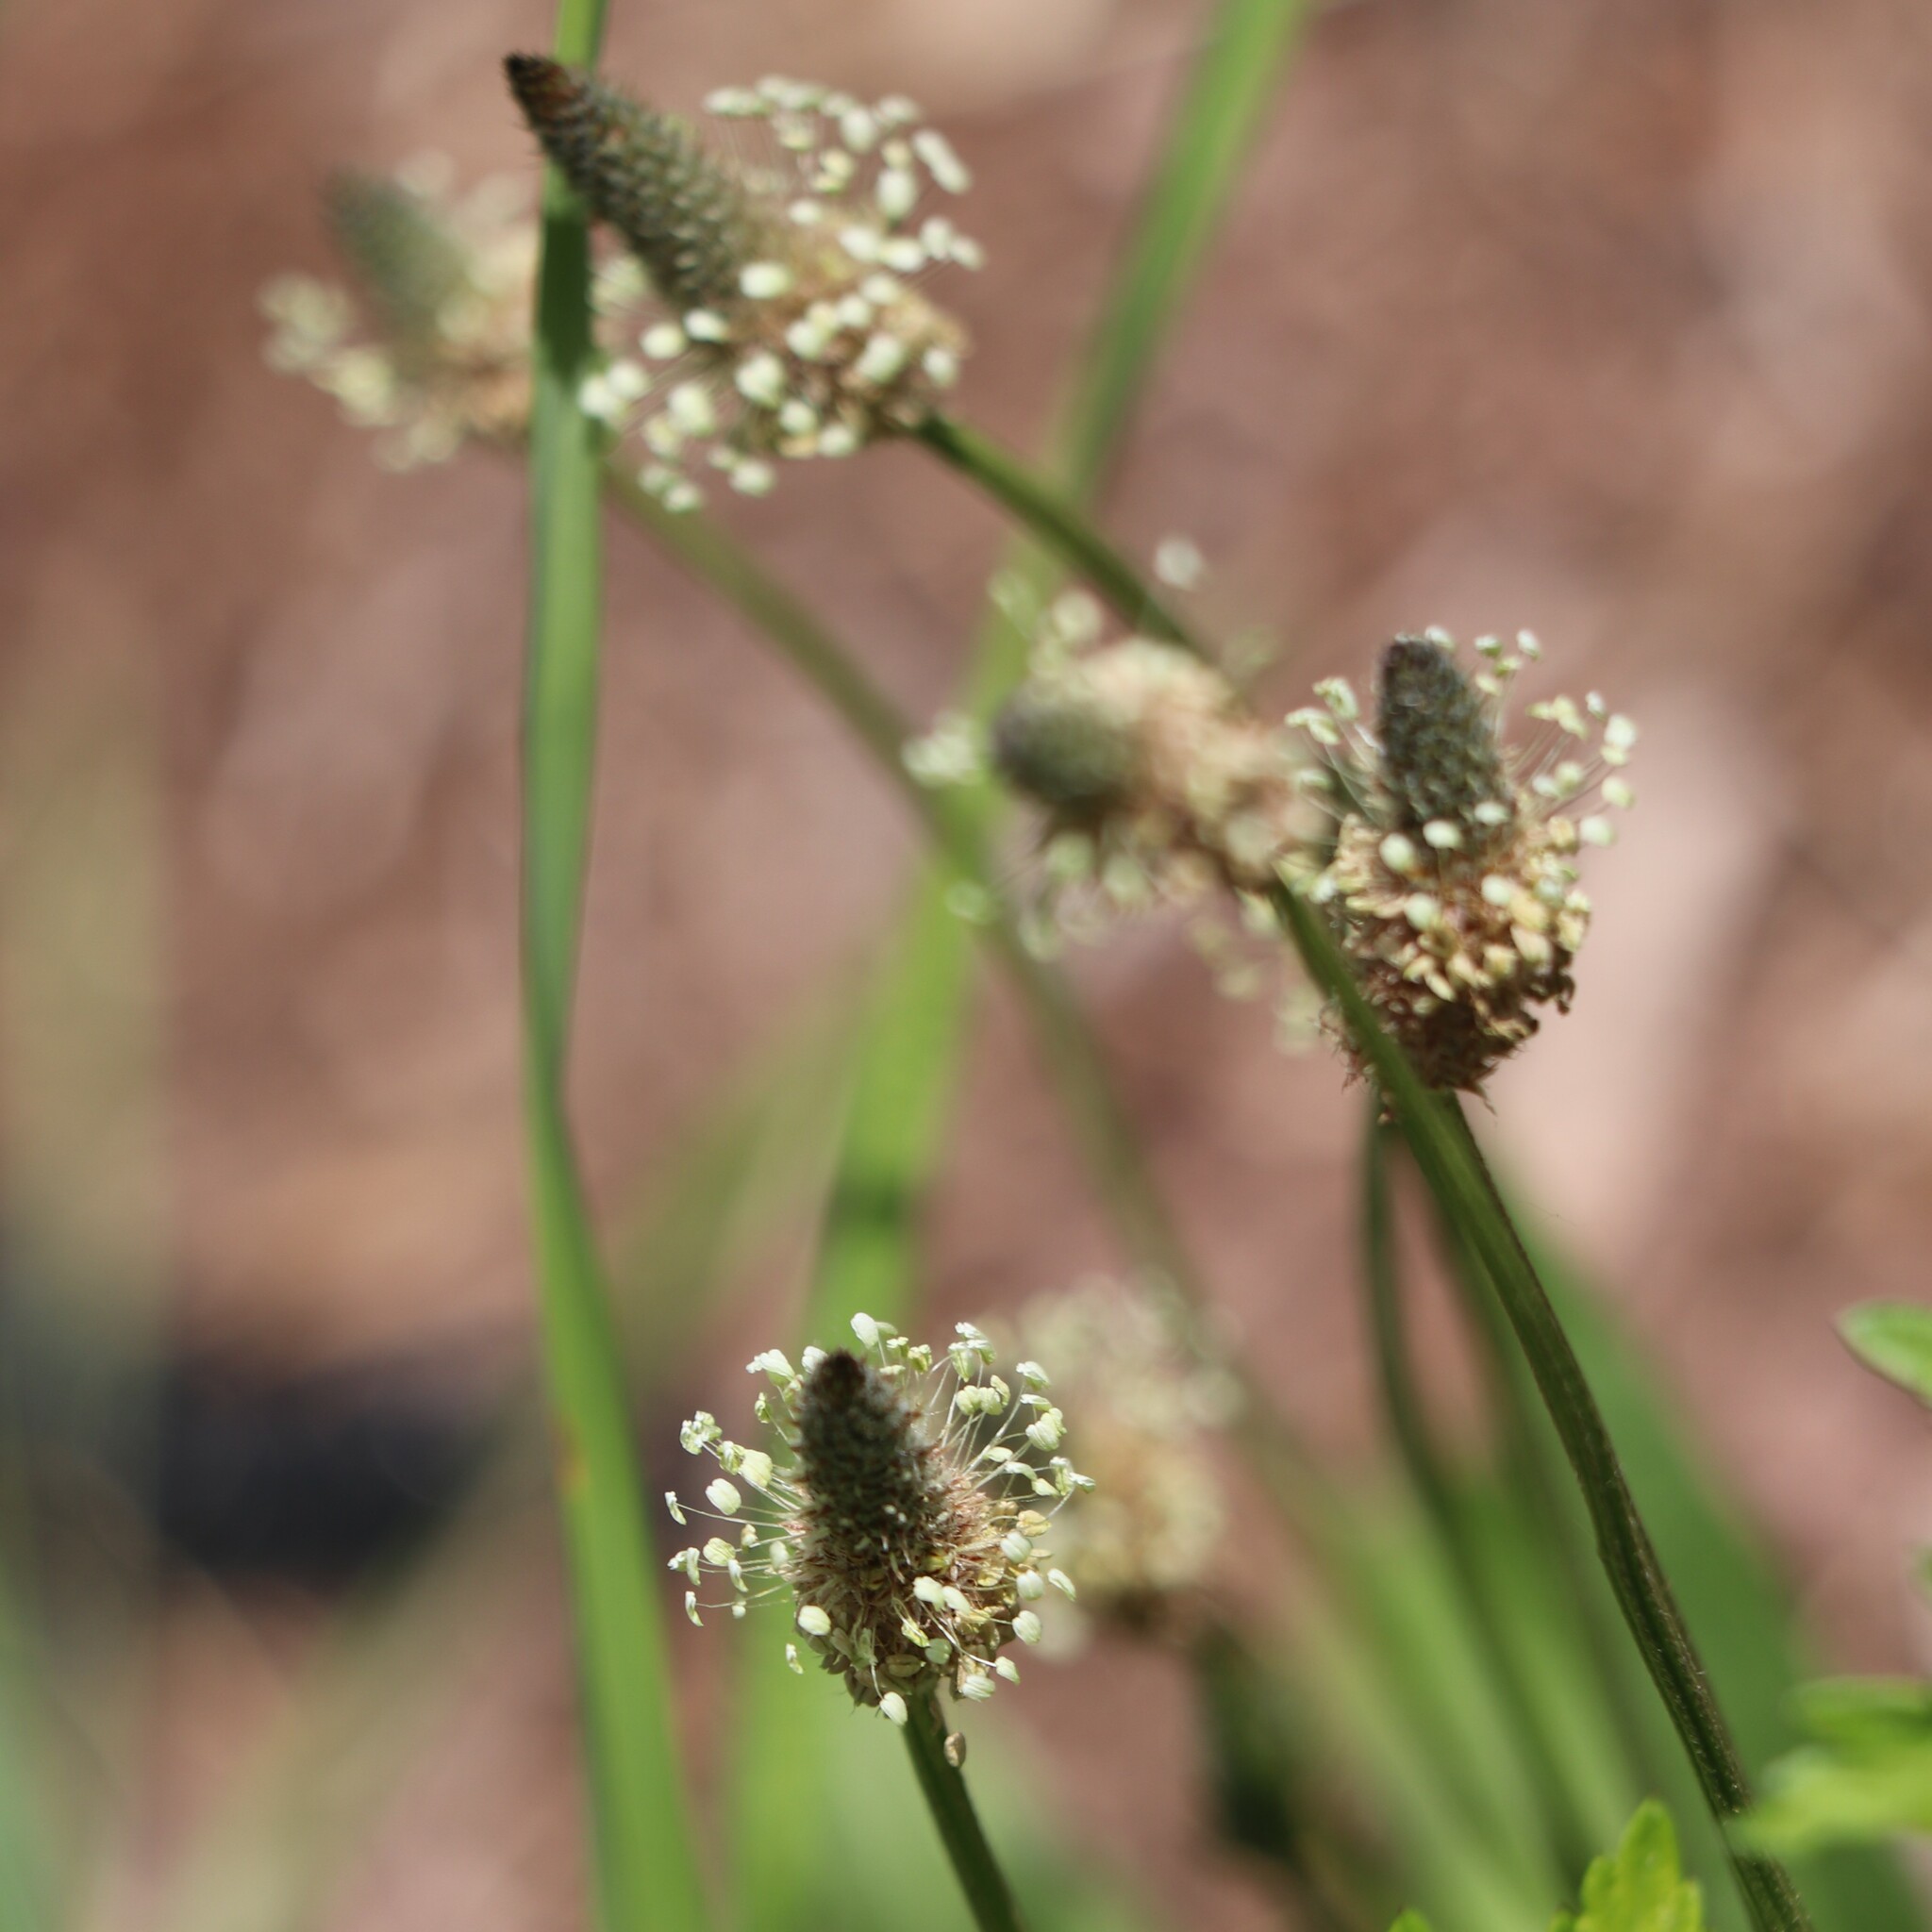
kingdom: Plantae
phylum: Tracheophyta
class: Magnoliopsida
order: Lamiales
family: Plantaginaceae
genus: Plantago
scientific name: Plantago lanceolata
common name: Ribwort plantain
